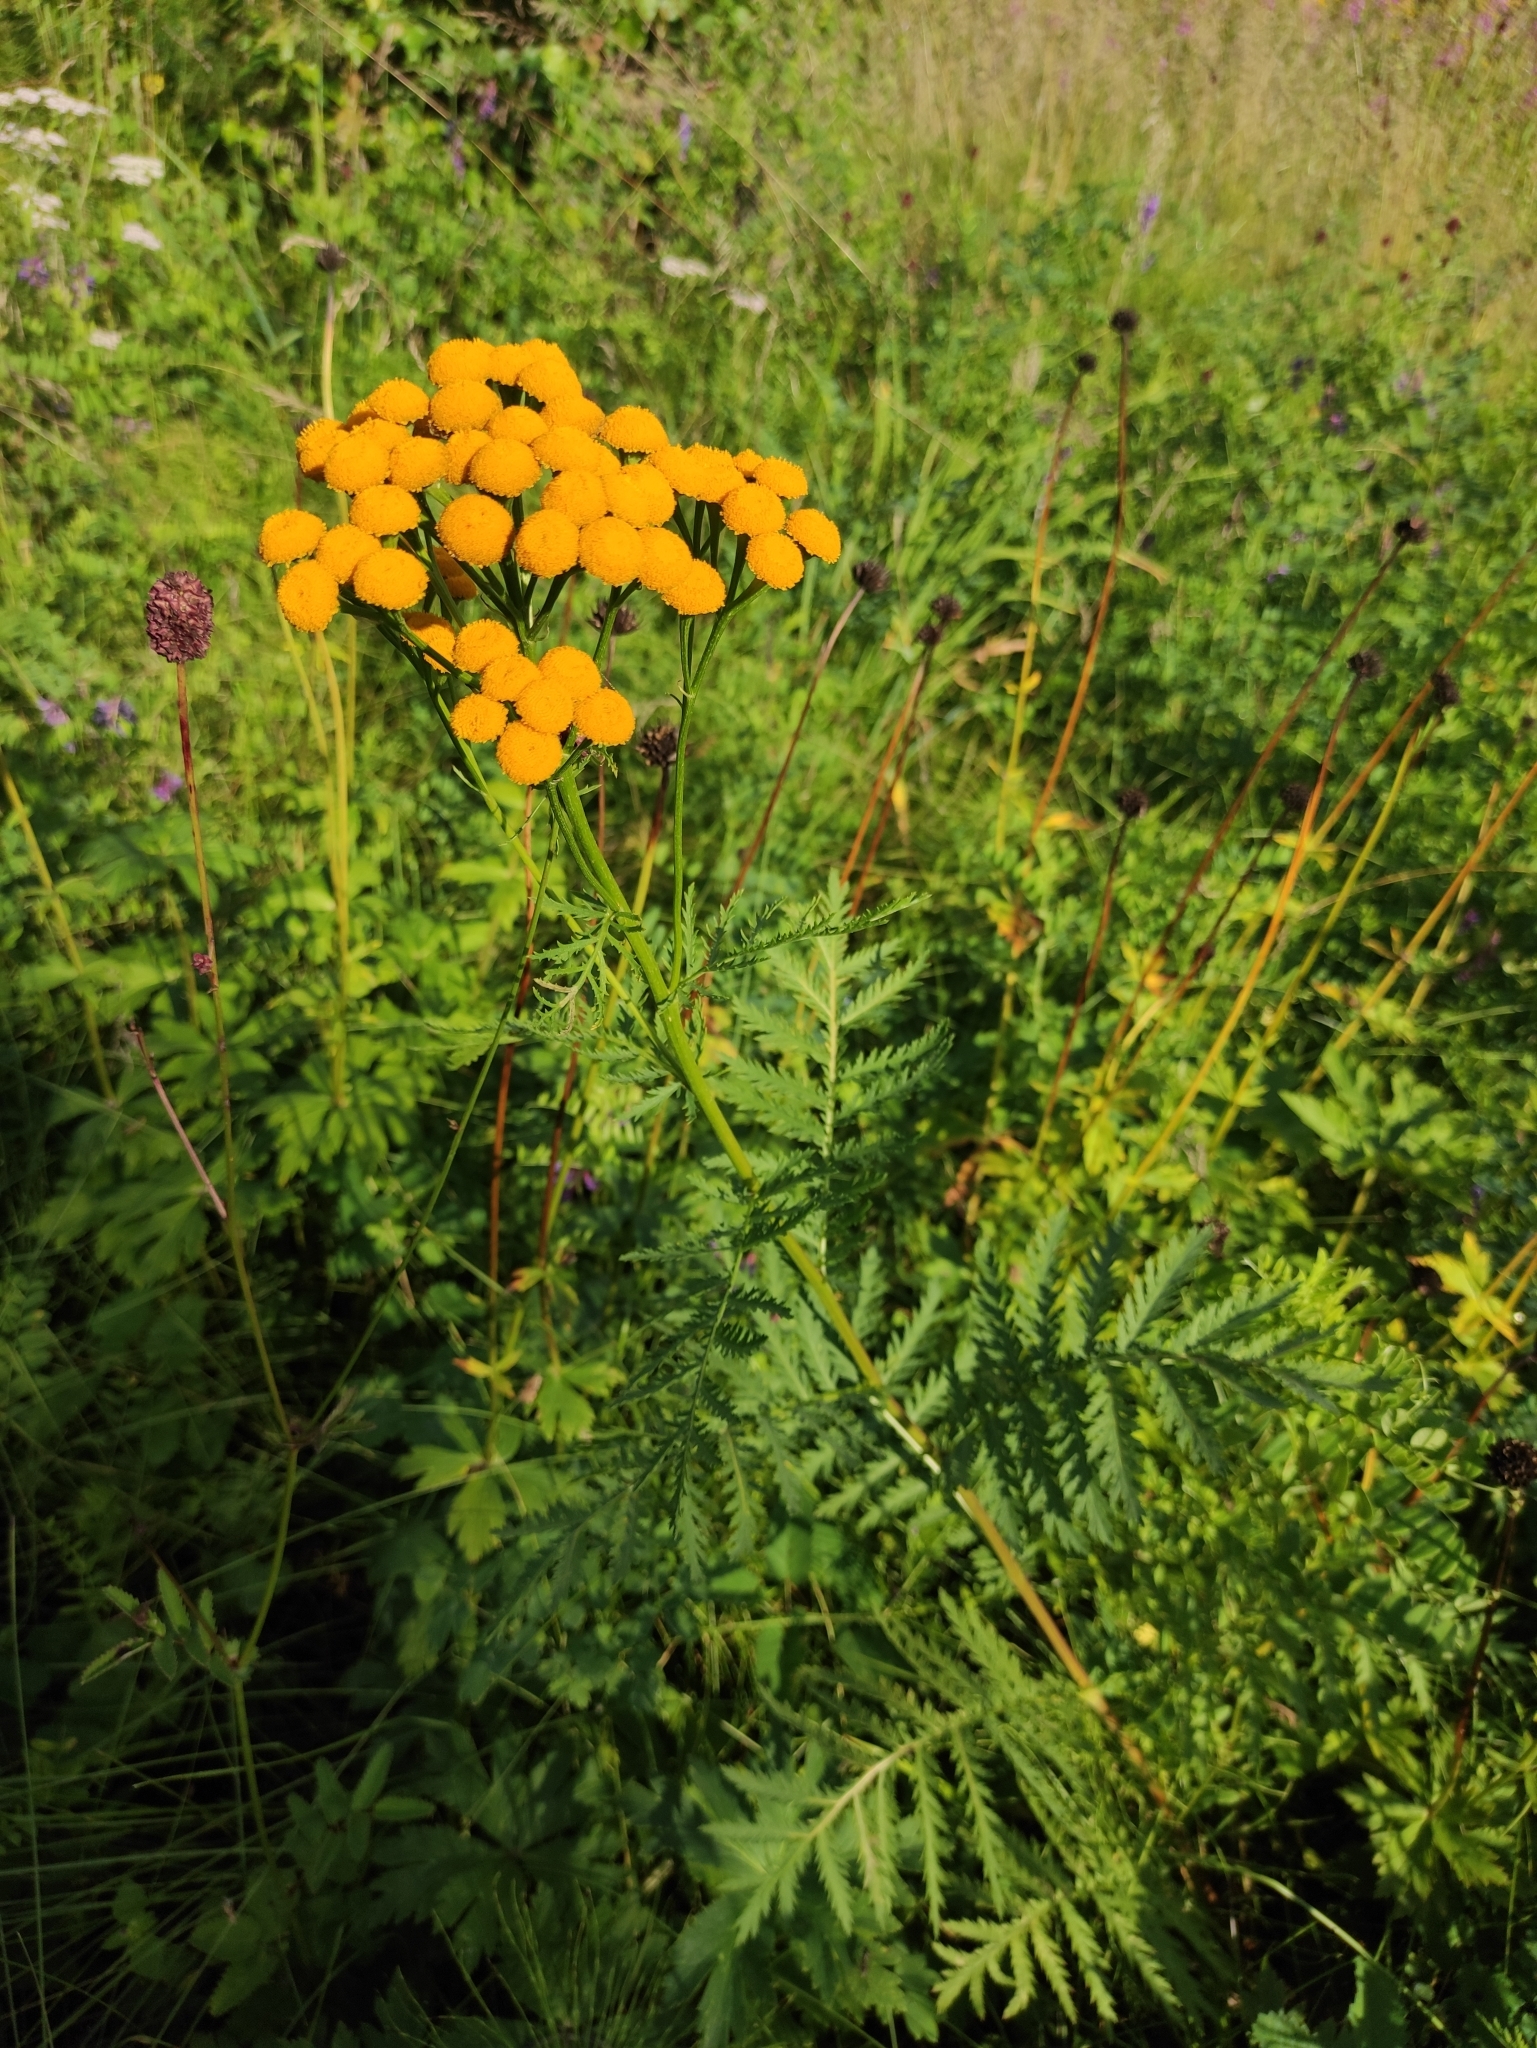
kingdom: Plantae
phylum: Tracheophyta
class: Magnoliopsida
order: Asterales
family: Asteraceae
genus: Tanacetum
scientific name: Tanacetum vulgare
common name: Common tansy
